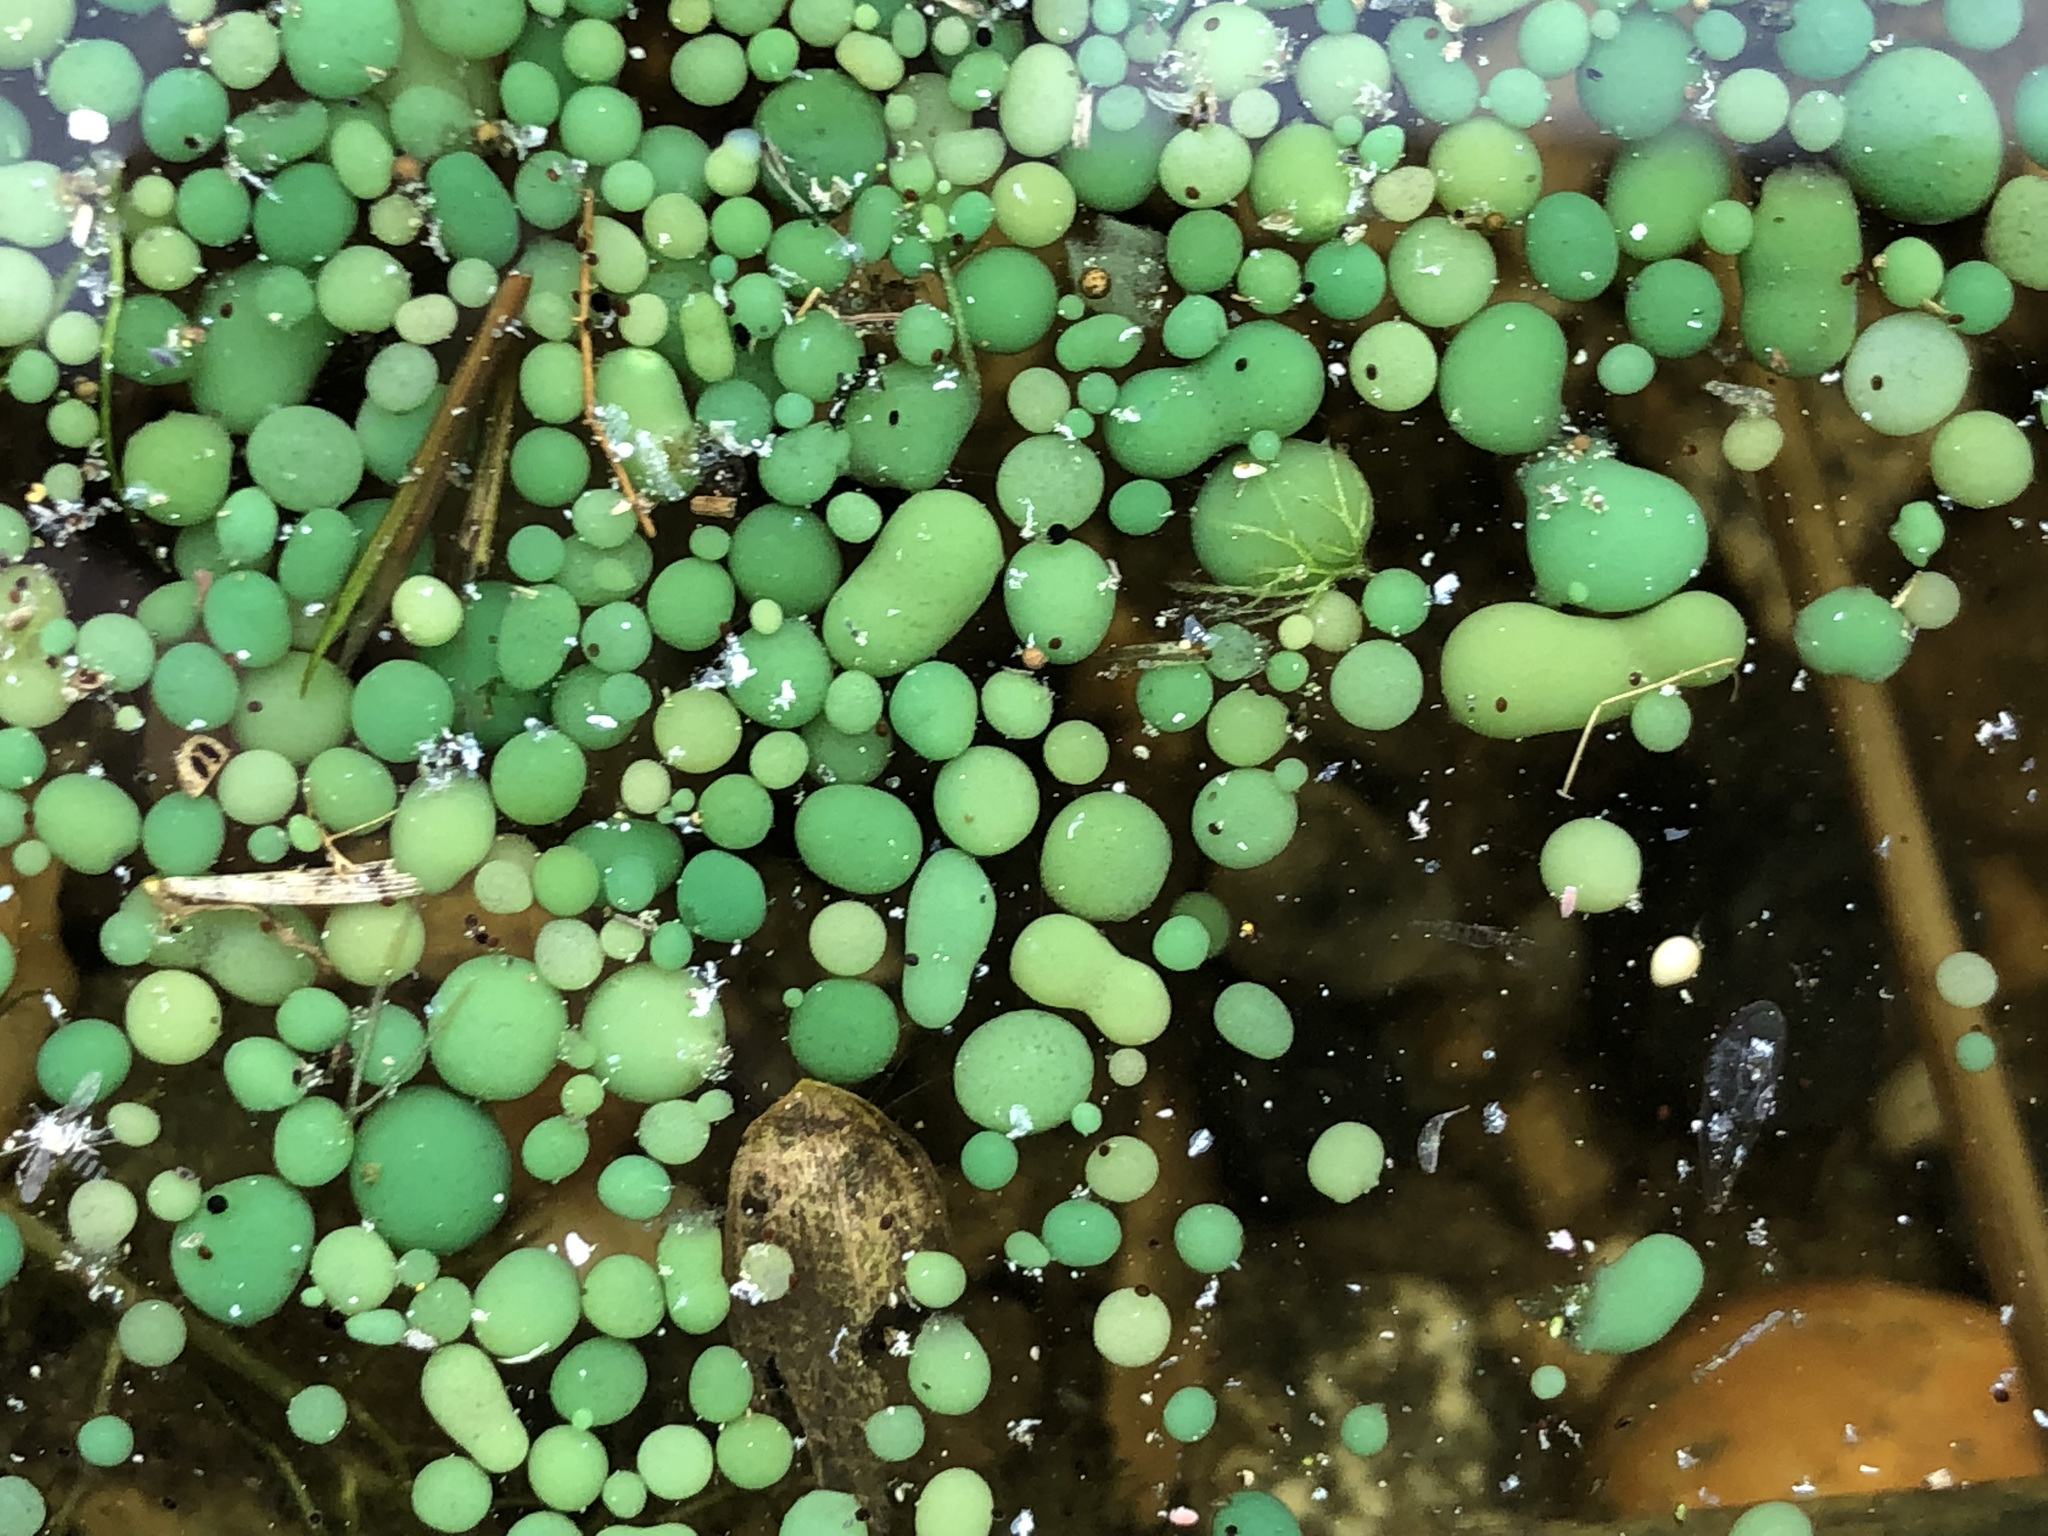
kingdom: Bacteria
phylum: Cyanobacteria
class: Cyanobacteriia
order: Cyanobacteriales
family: Nostocaceae
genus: Nostoc
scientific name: Nostoc kihlmanii
